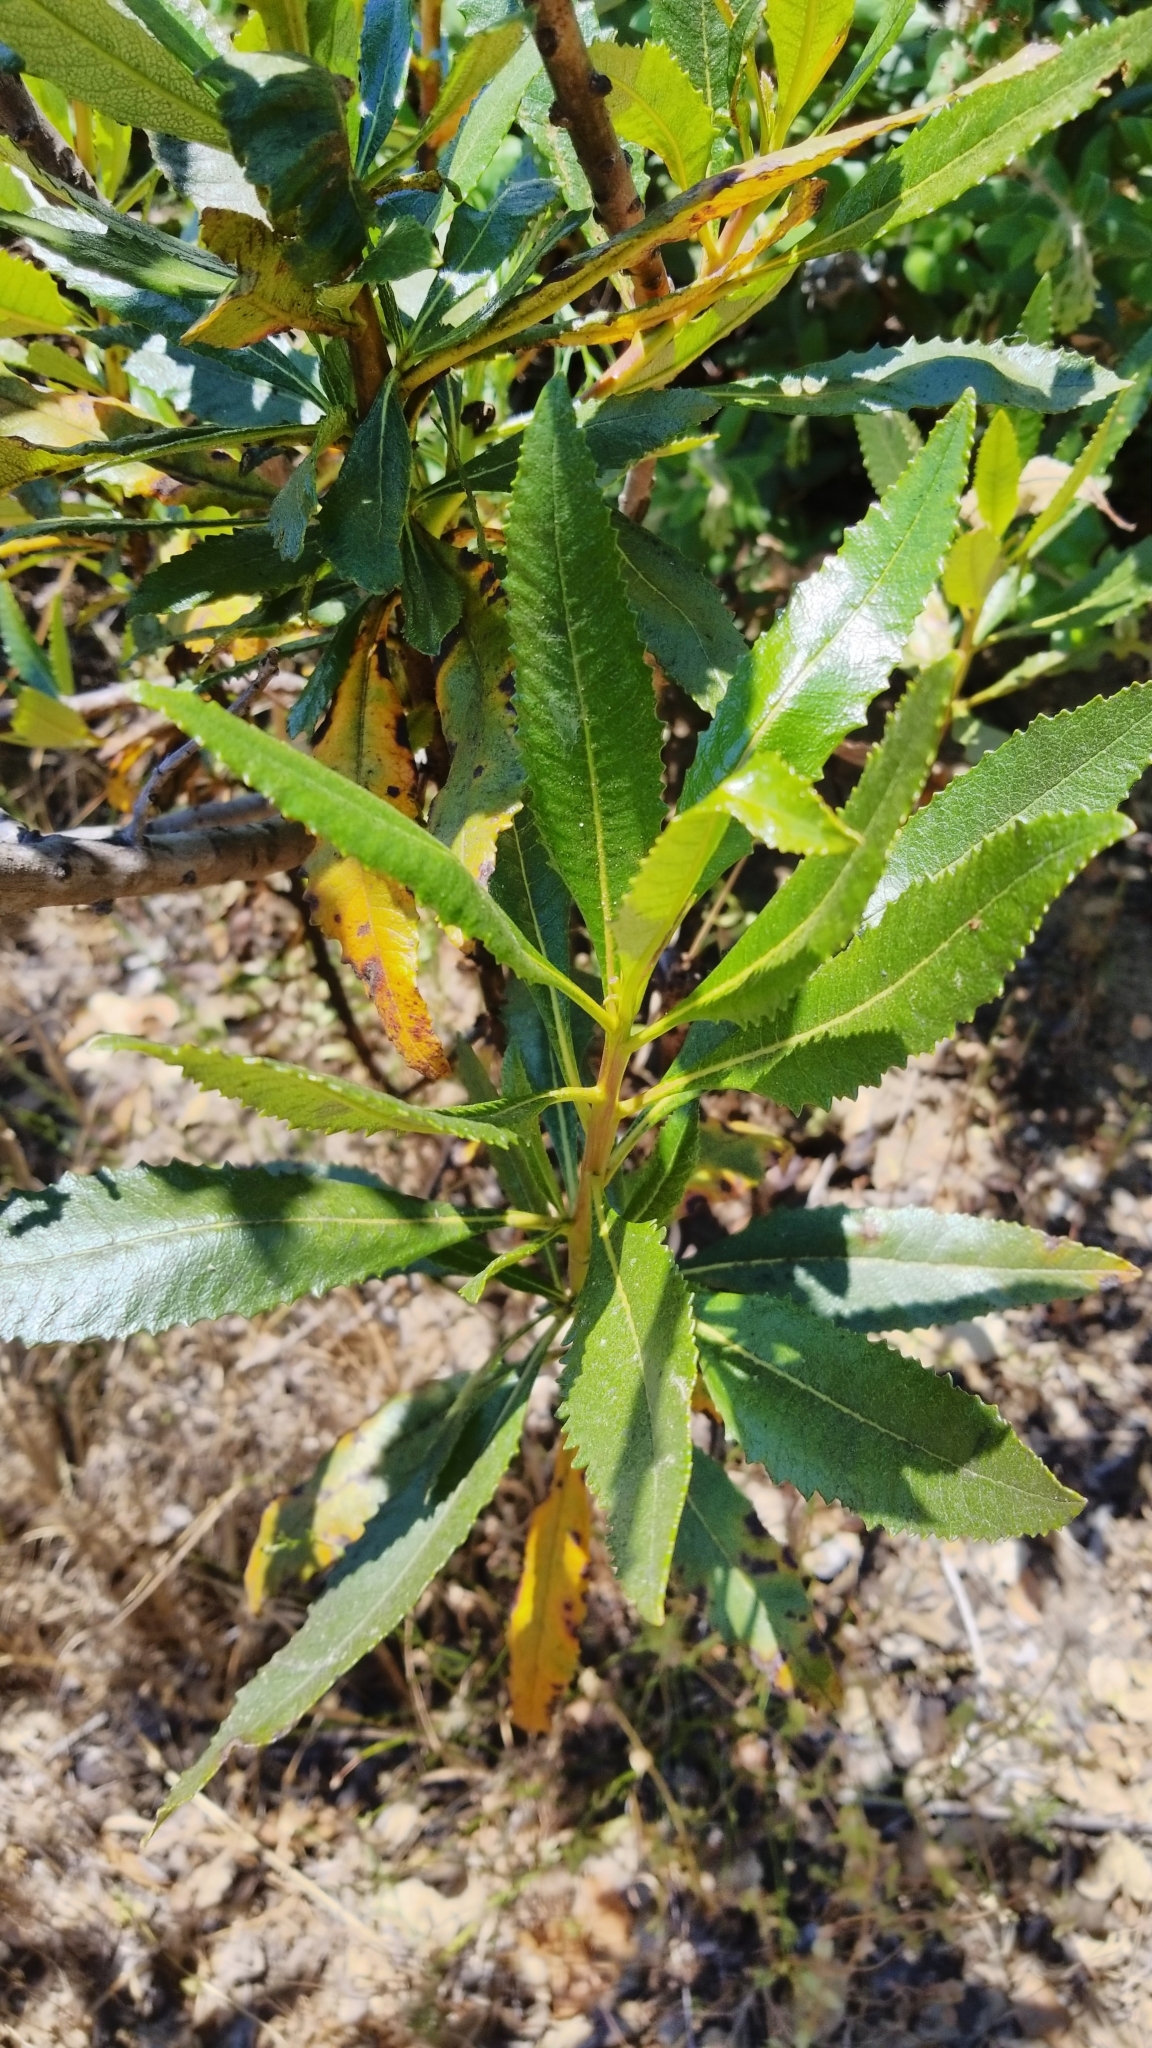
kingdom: Plantae
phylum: Tracheophyta
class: Magnoliopsida
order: Boraginales
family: Namaceae
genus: Eriodictyon
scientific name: Eriodictyon californicum
